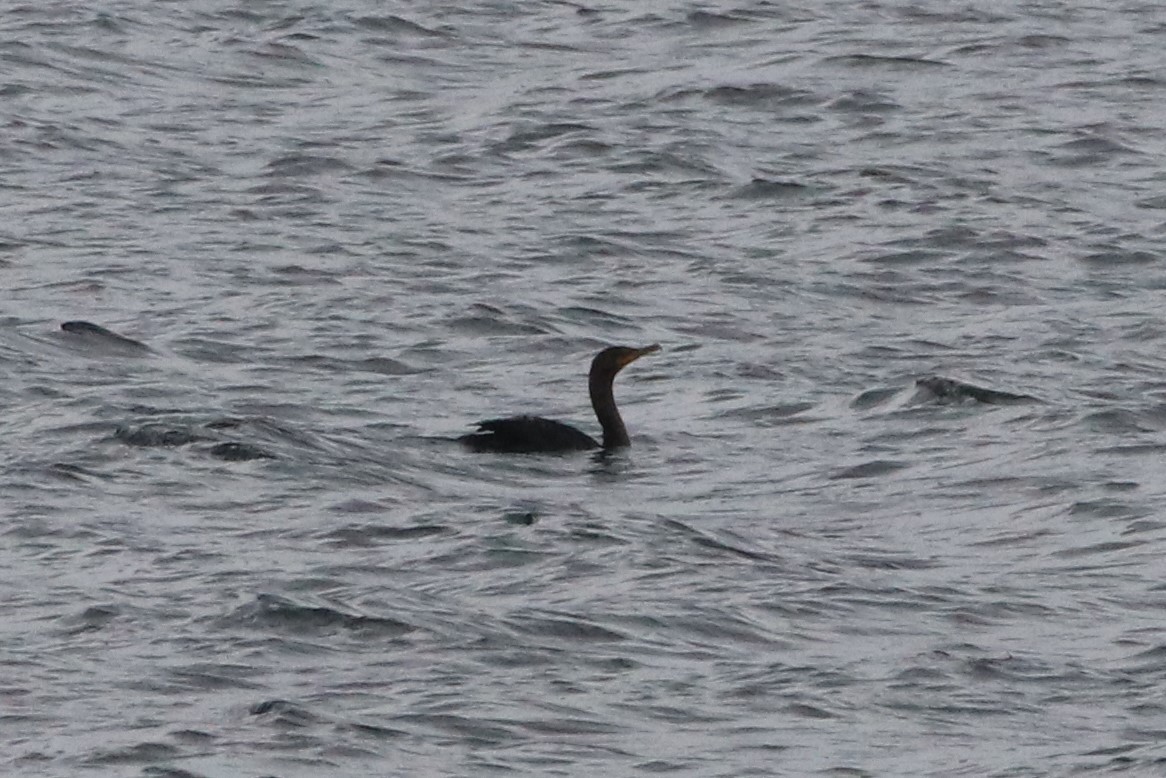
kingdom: Animalia
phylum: Chordata
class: Aves
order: Suliformes
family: Phalacrocoracidae
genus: Phalacrocorax
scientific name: Phalacrocorax auritus
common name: Double-crested cormorant
